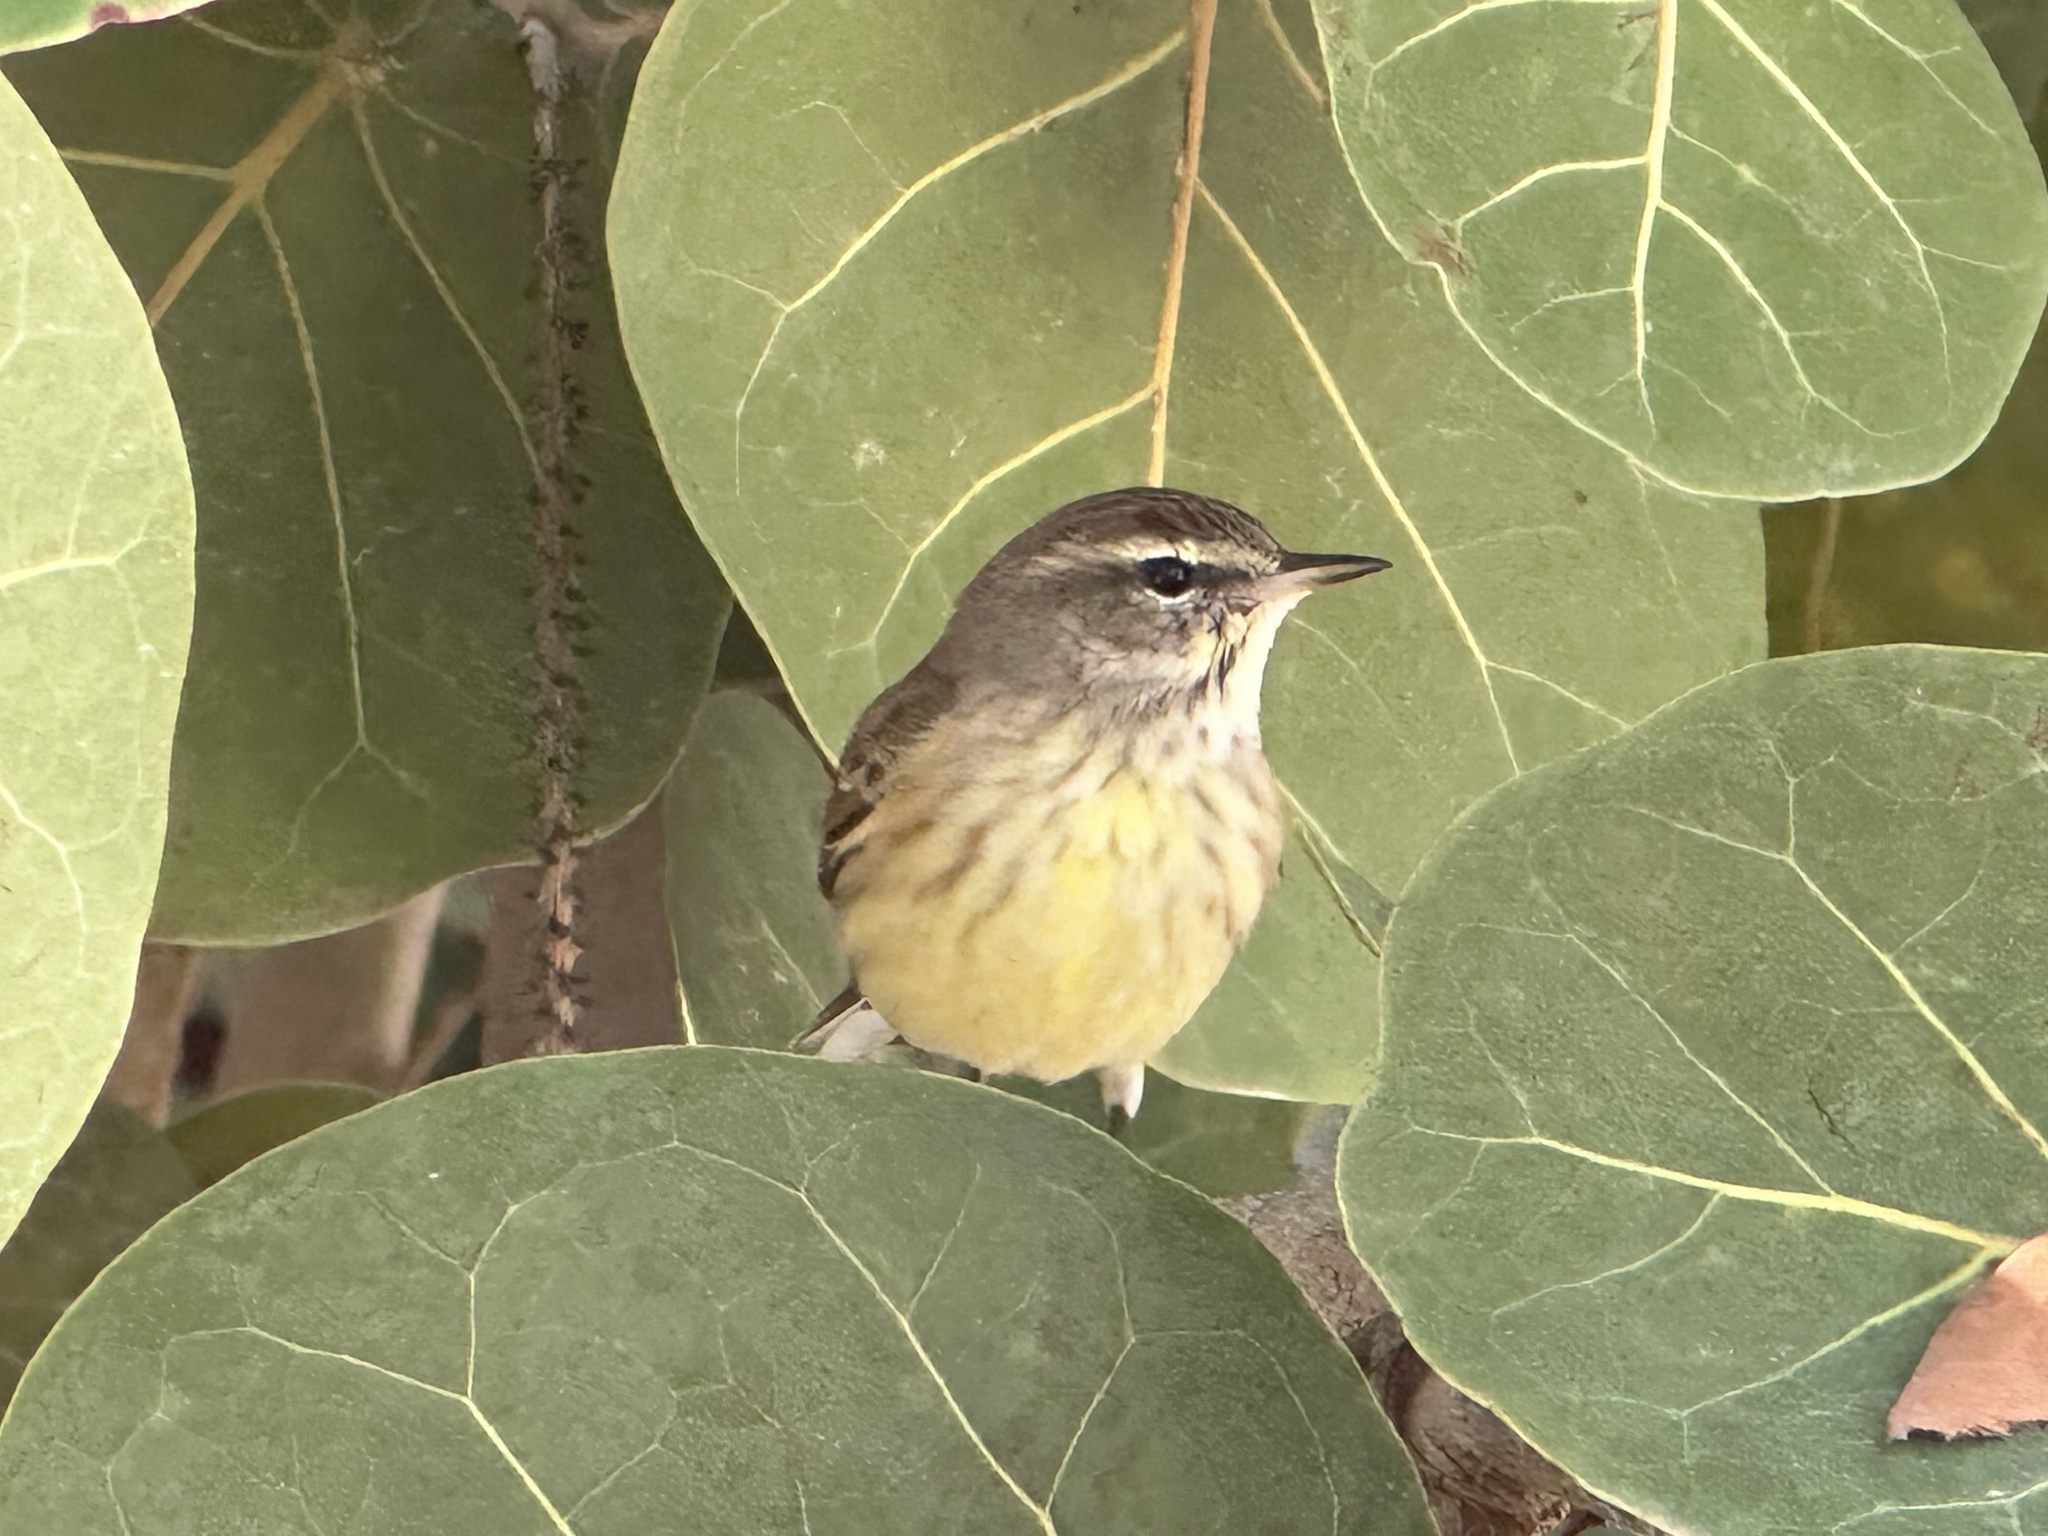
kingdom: Animalia
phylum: Chordata
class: Aves
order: Passeriformes
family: Parulidae
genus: Setophaga
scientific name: Setophaga palmarum
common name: Palm warbler
